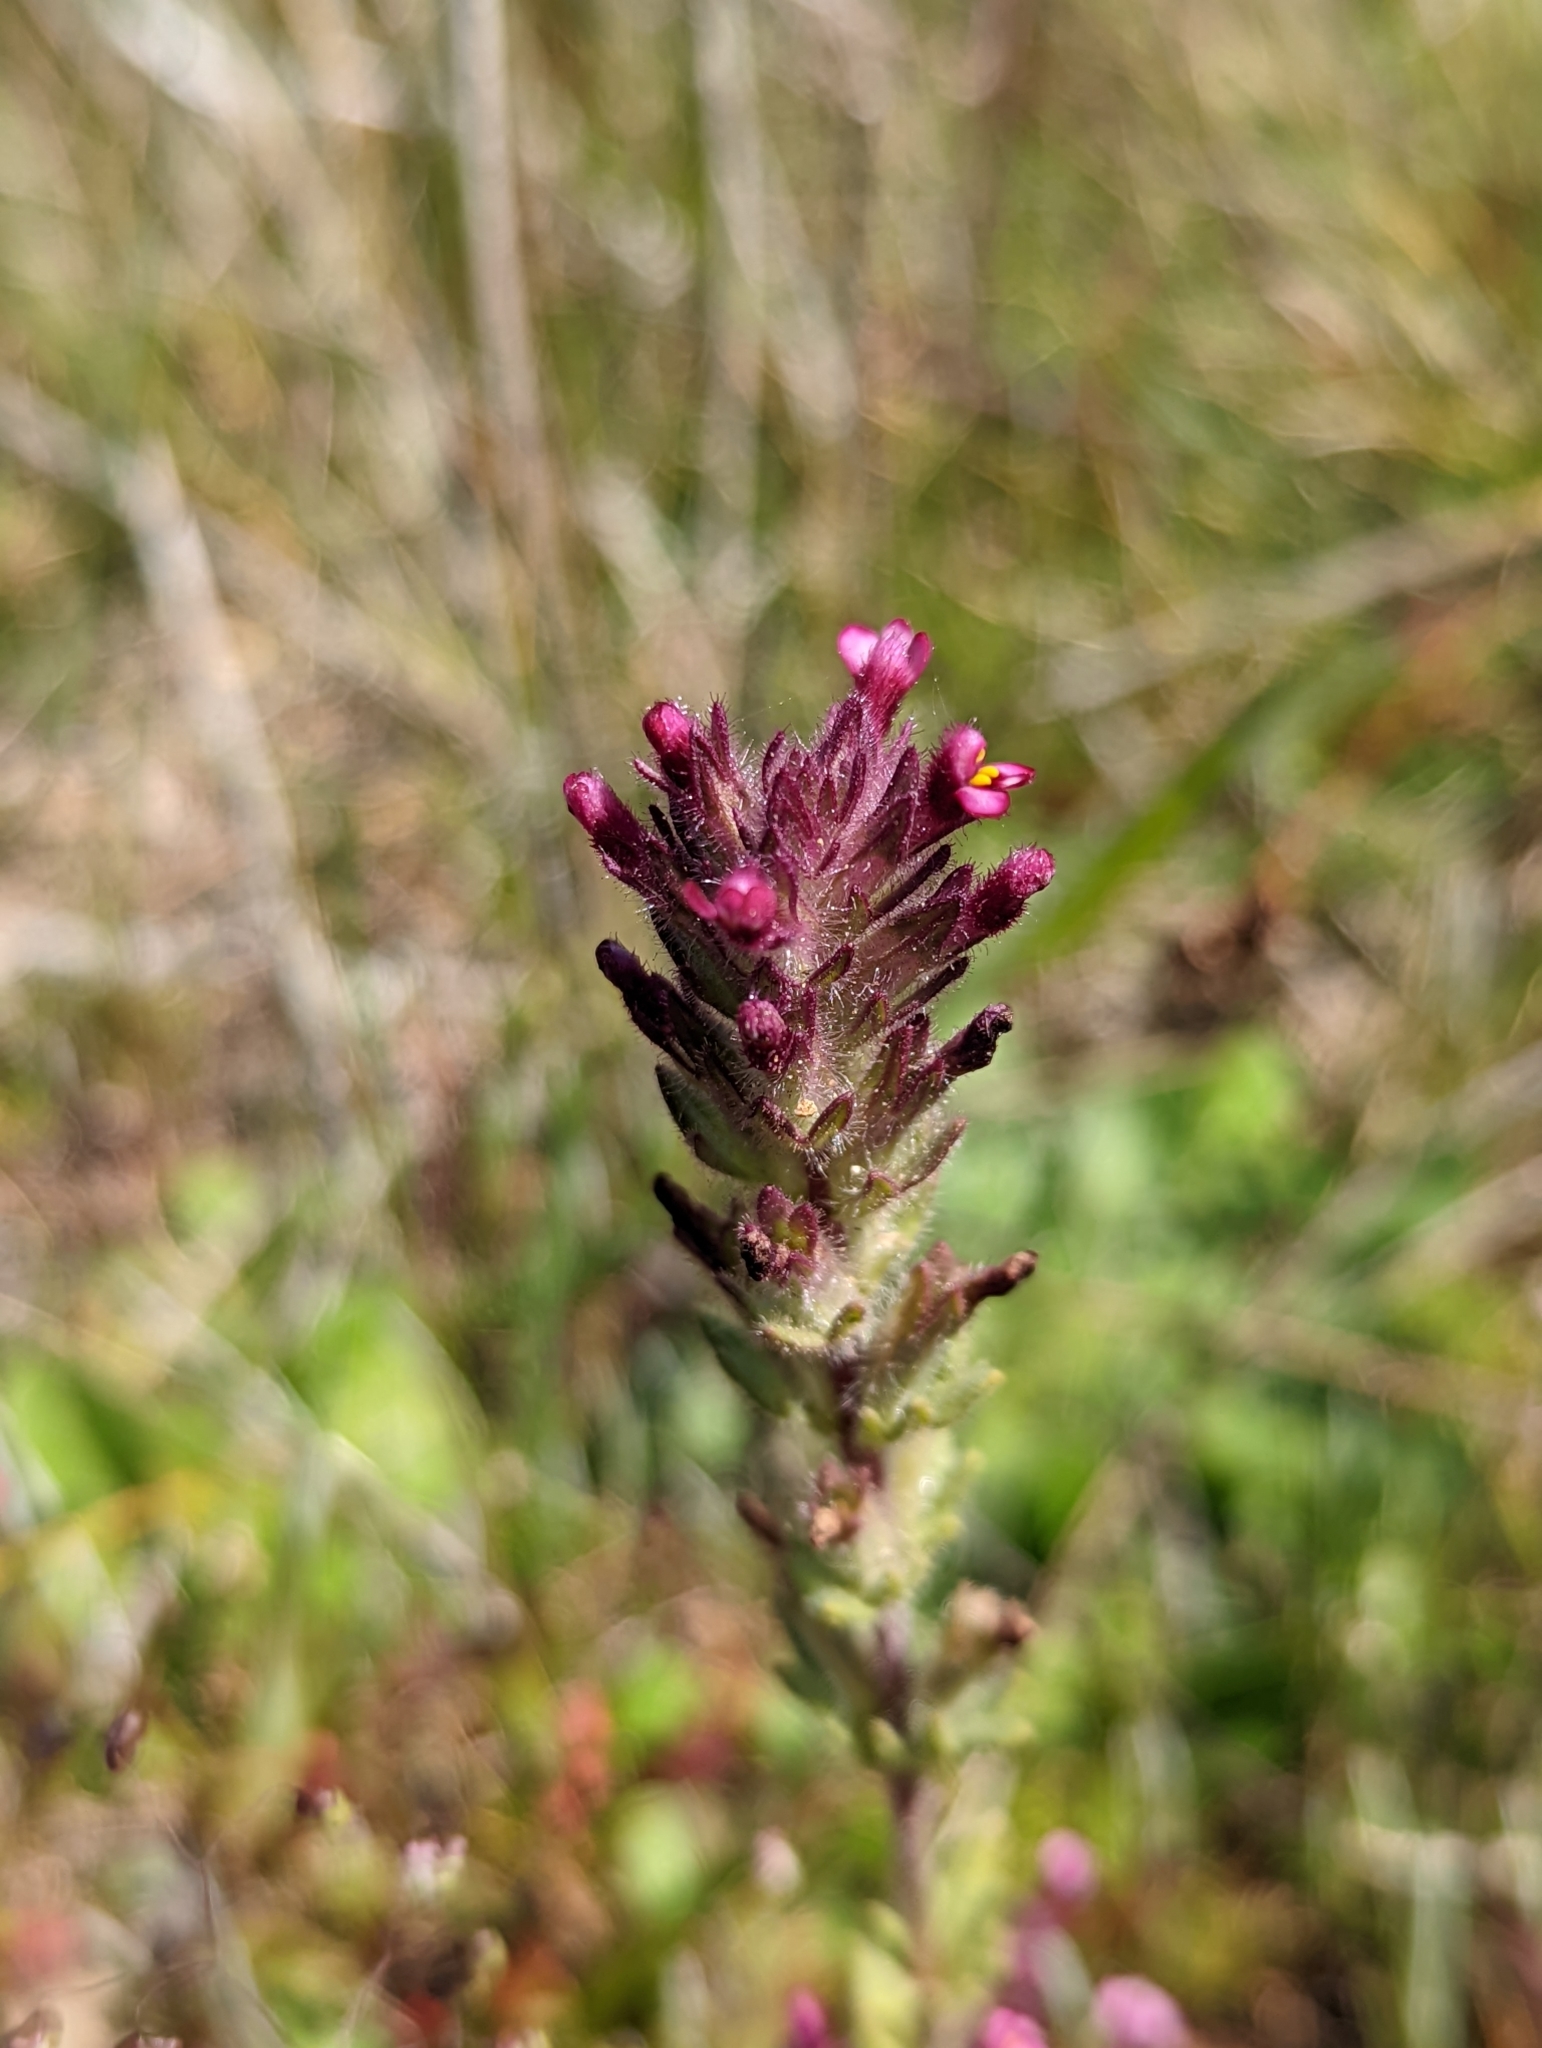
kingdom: Plantae
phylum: Tracheophyta
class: Magnoliopsida
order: Lamiales
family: Orobanchaceae
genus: Parentucellia
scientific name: Parentucellia latifolia
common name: Broadleaf glandweed
